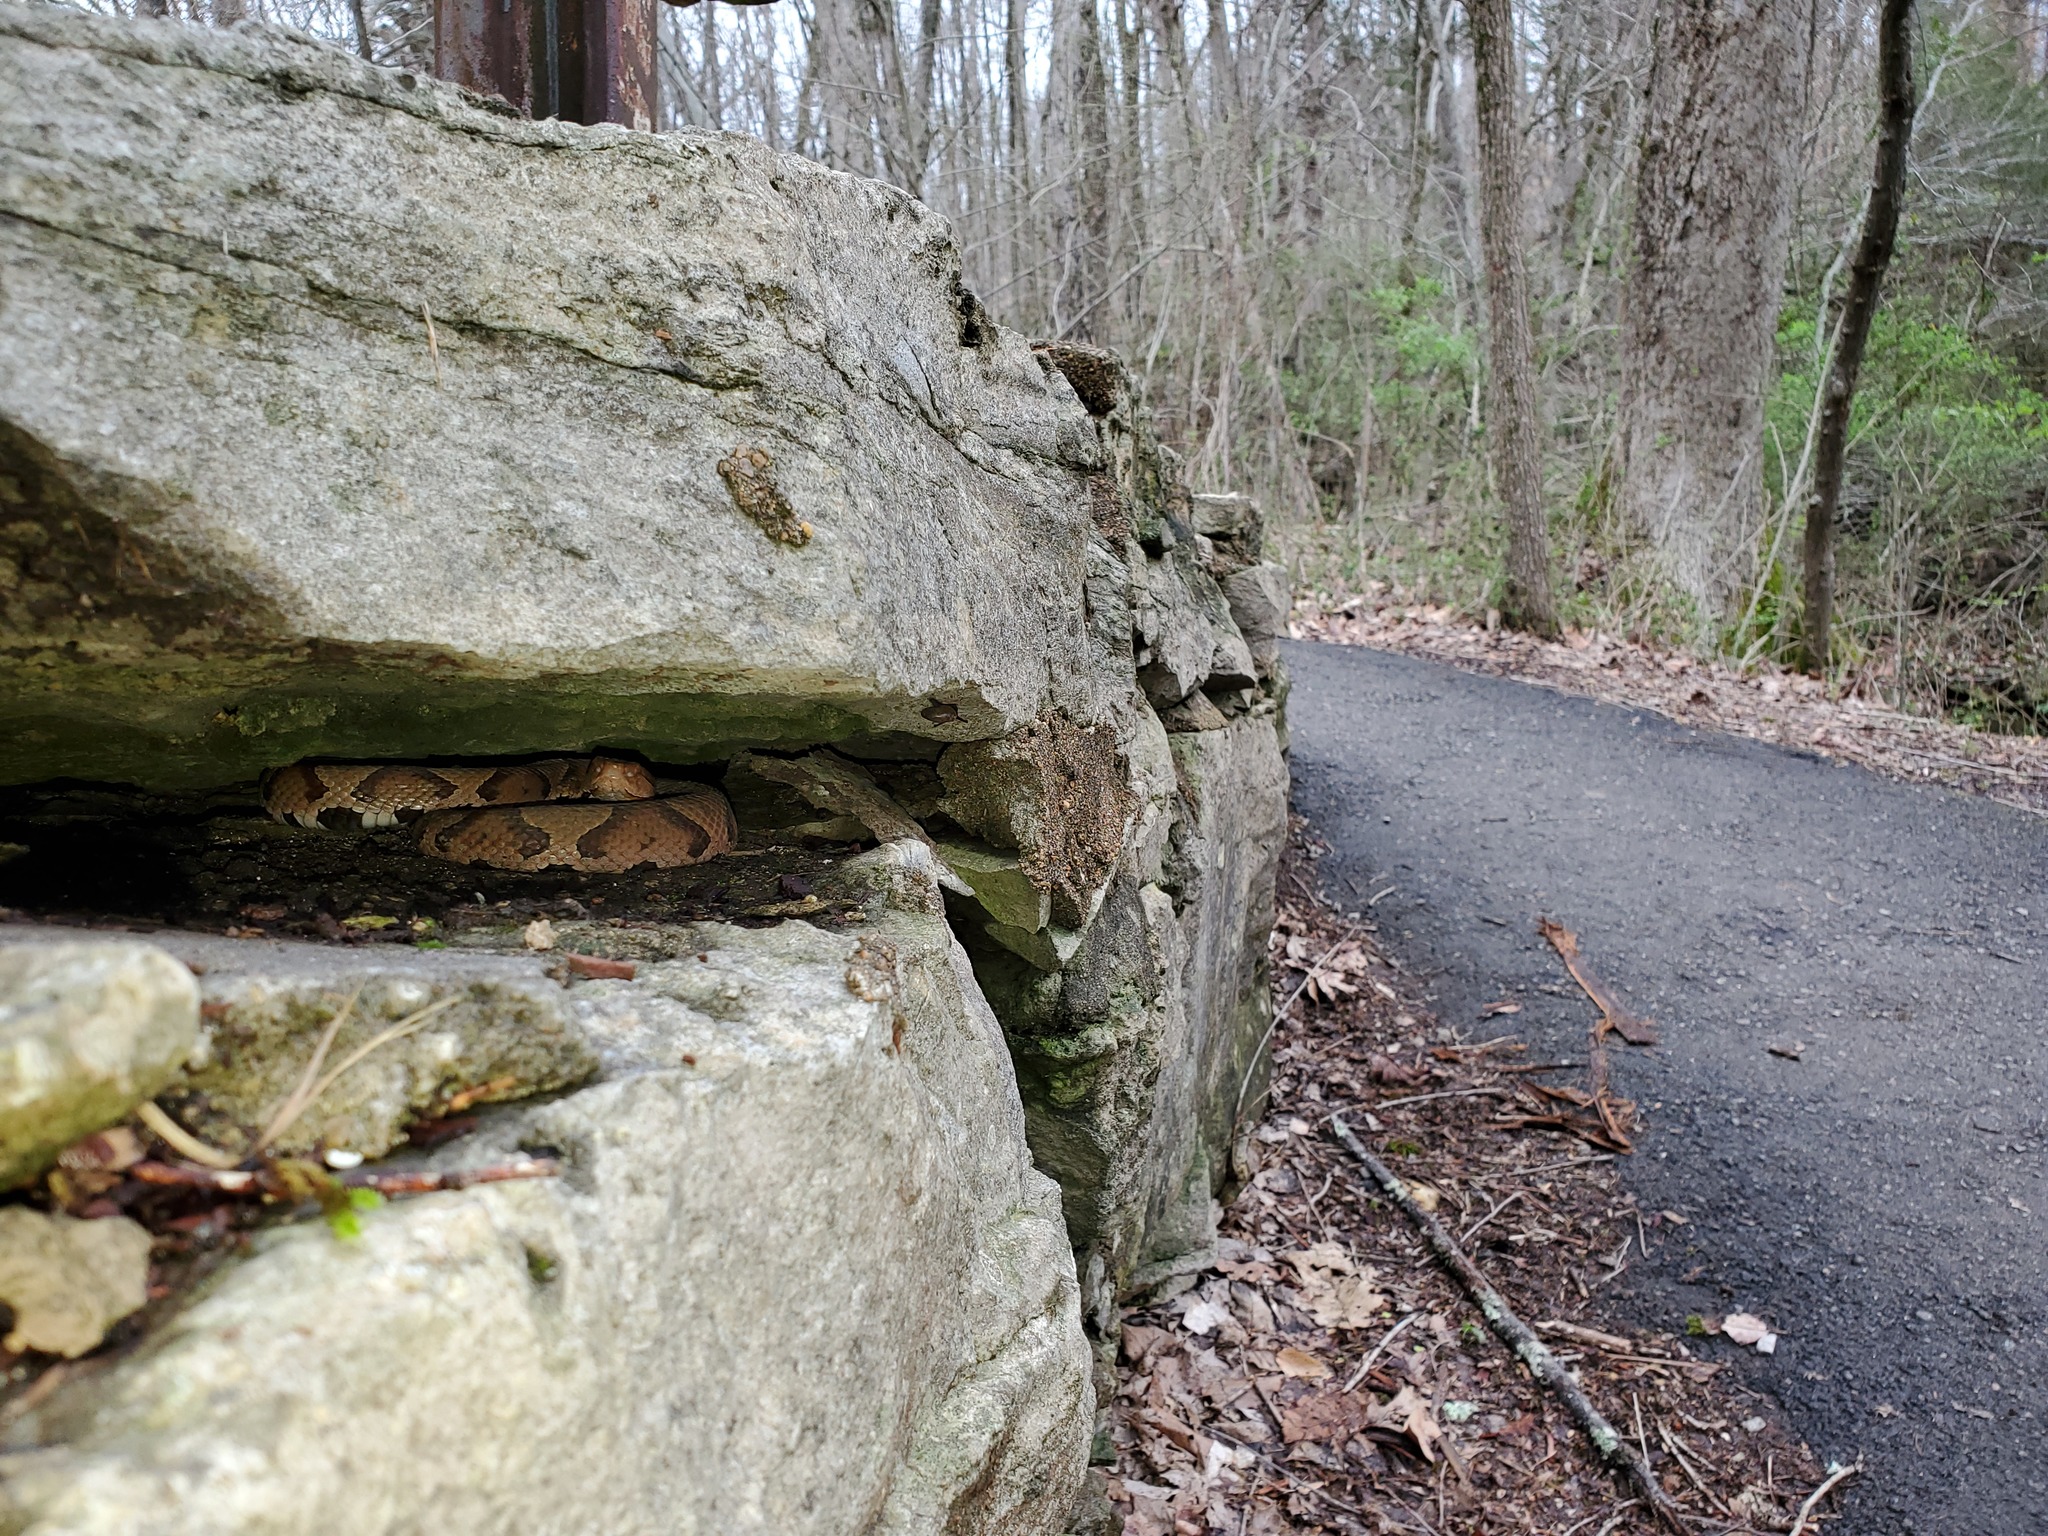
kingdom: Animalia
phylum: Chordata
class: Squamata
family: Viperidae
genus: Agkistrodon
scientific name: Agkistrodon contortrix
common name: Northern copperhead
